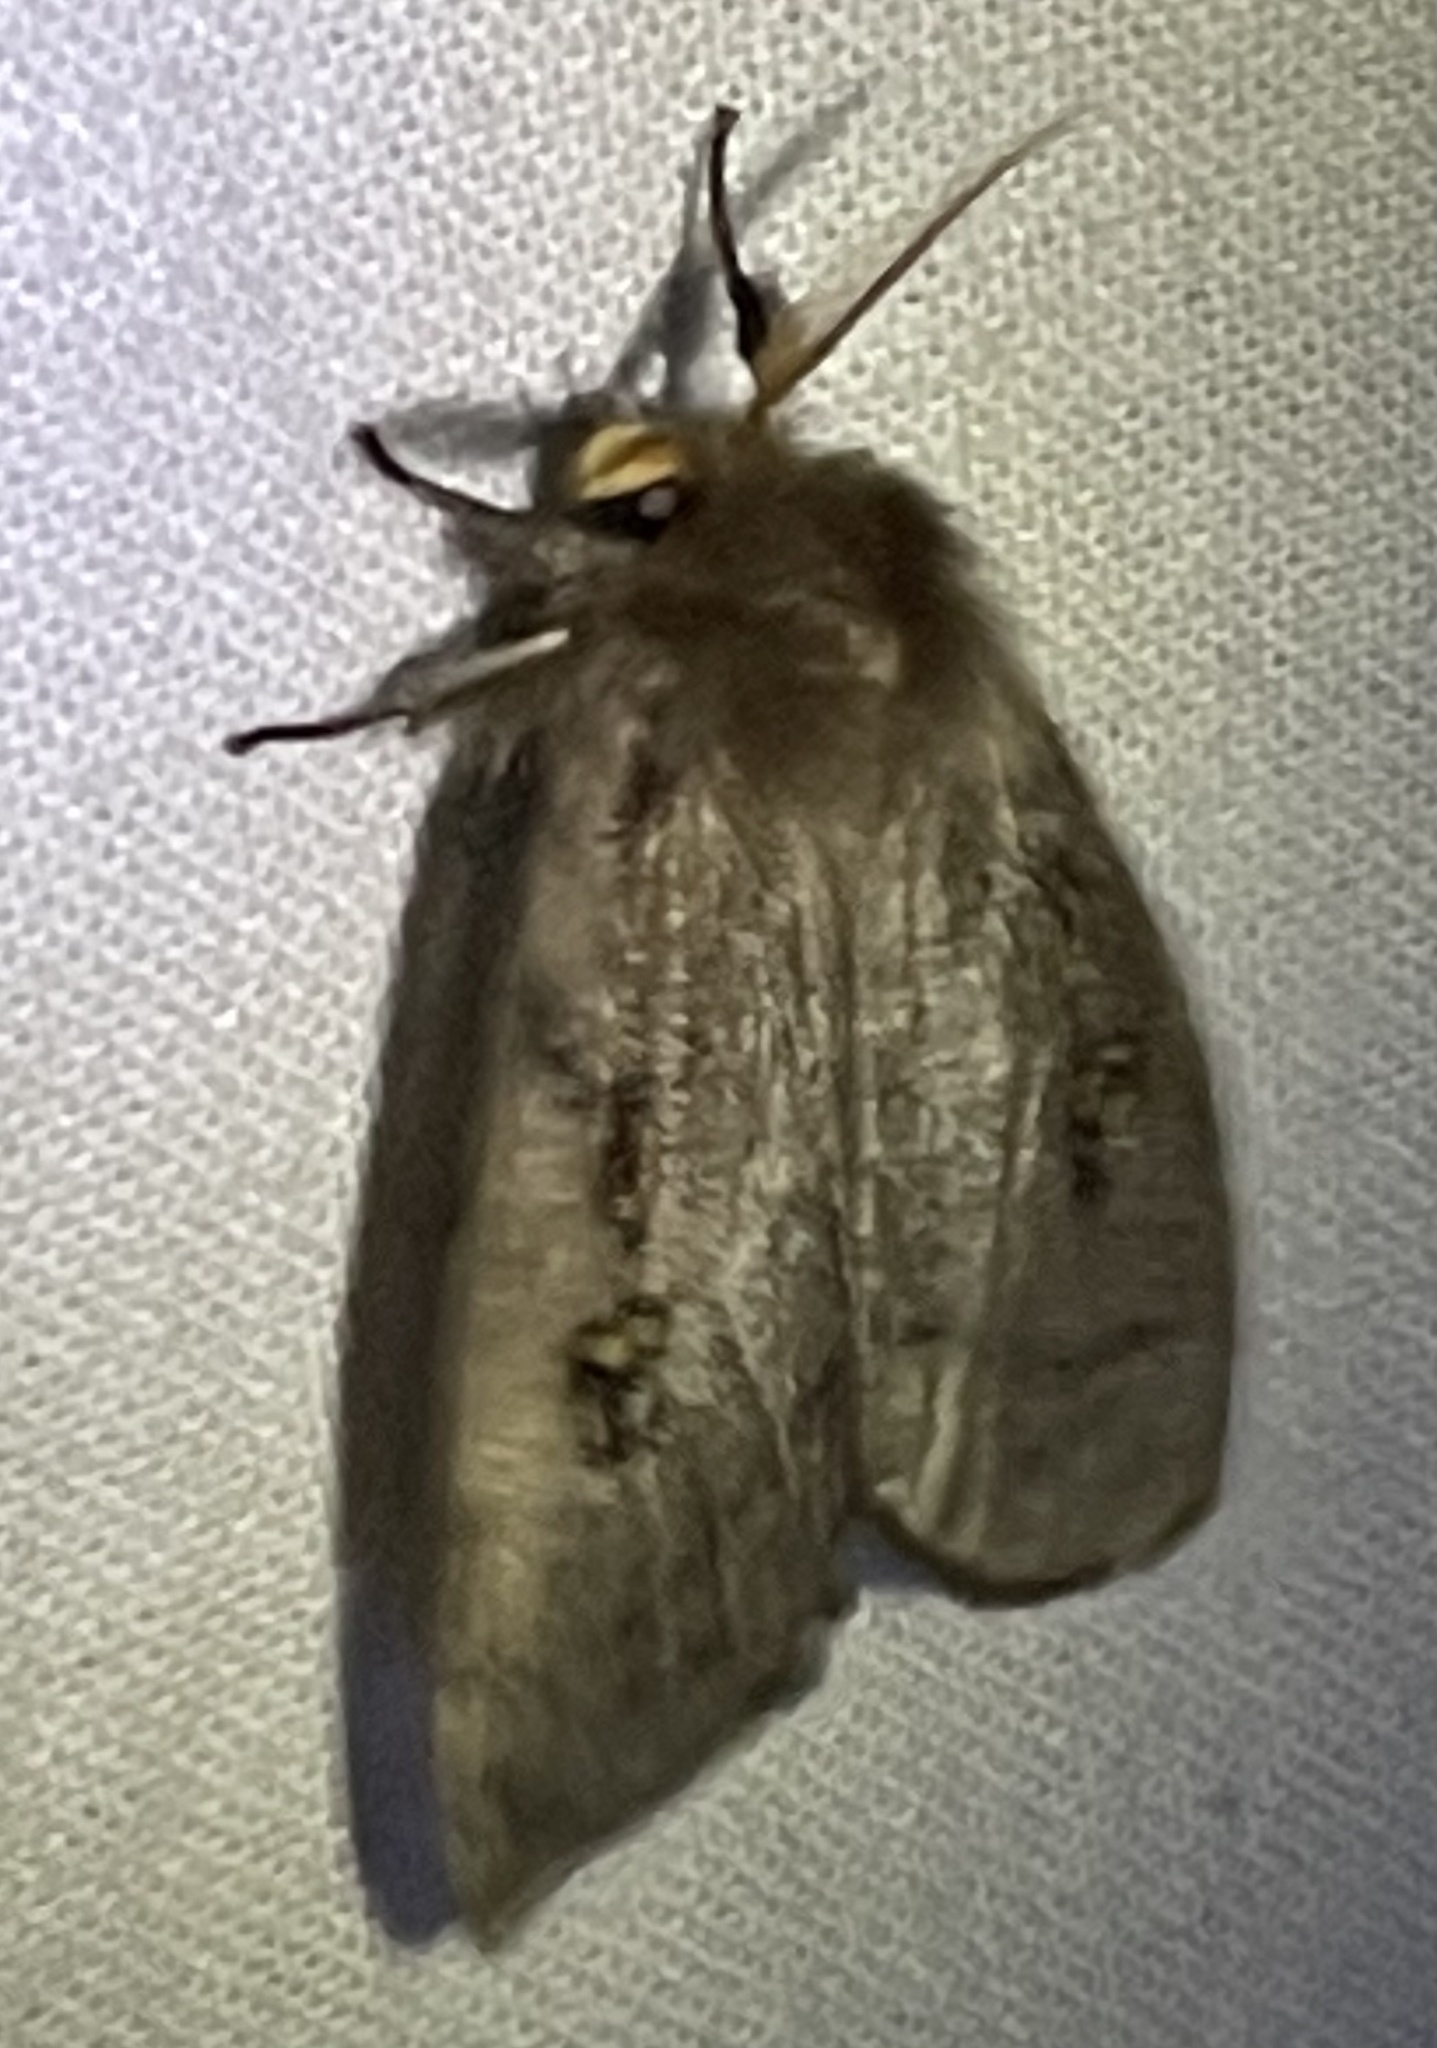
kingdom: Animalia
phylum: Arthropoda
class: Insecta
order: Lepidoptera
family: Erebidae
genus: Leptocneria
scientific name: Leptocneria reducta
